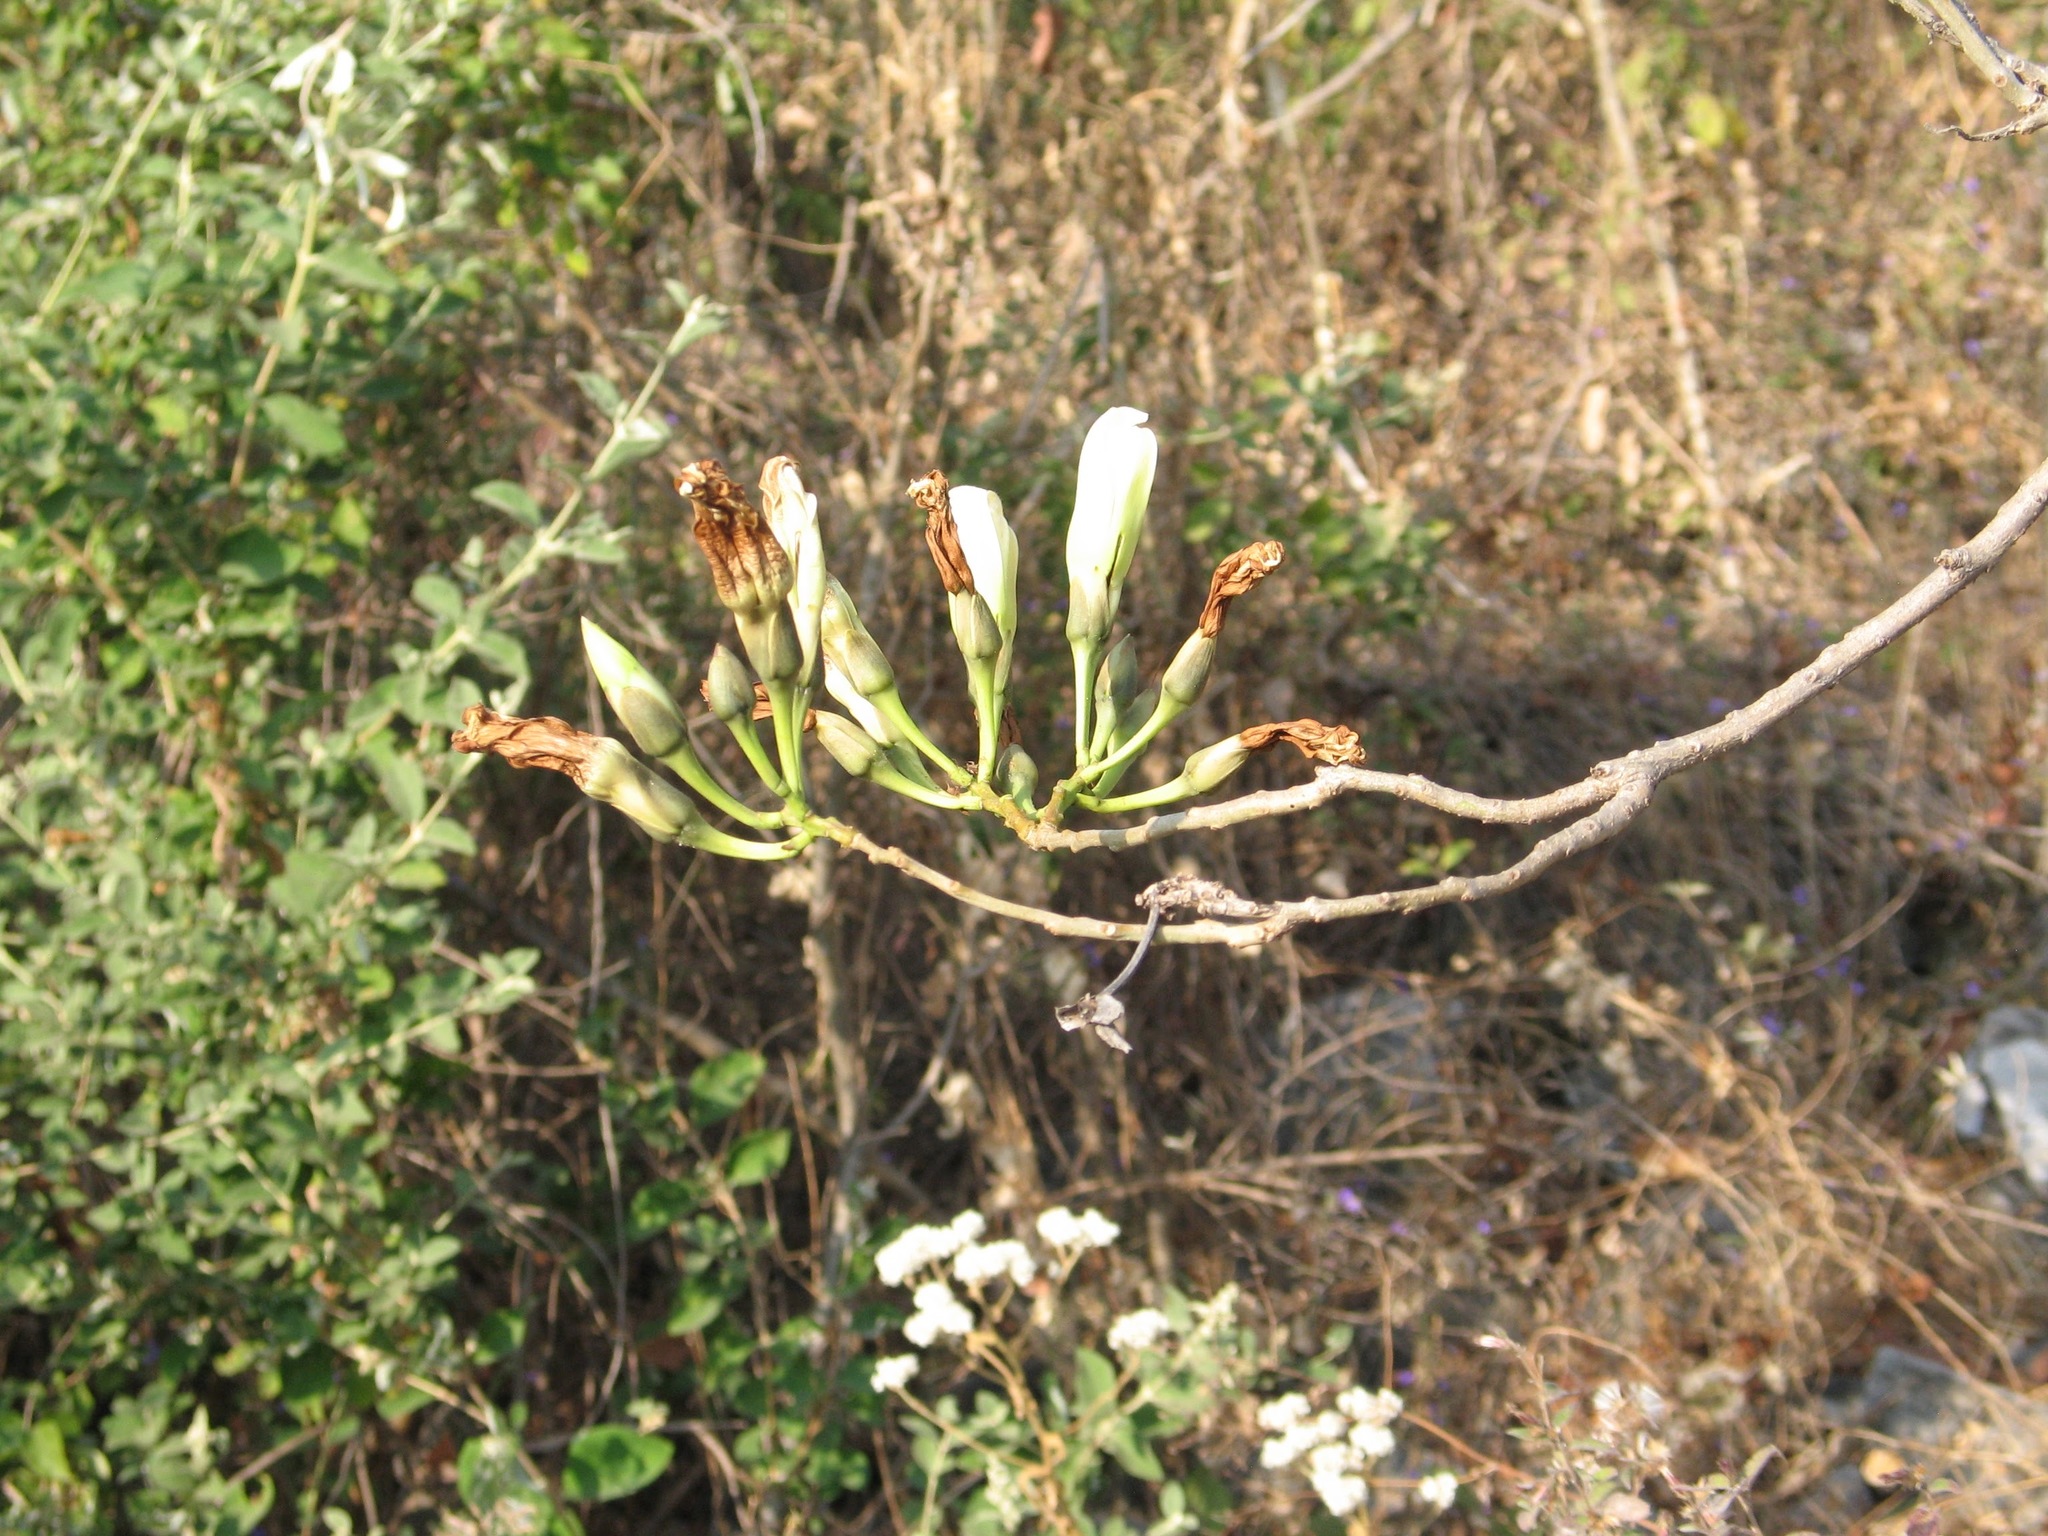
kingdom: Plantae
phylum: Tracheophyta
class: Magnoliopsida
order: Solanales
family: Convolvulaceae
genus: Ipomoea
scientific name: Ipomoea intrapilosa
